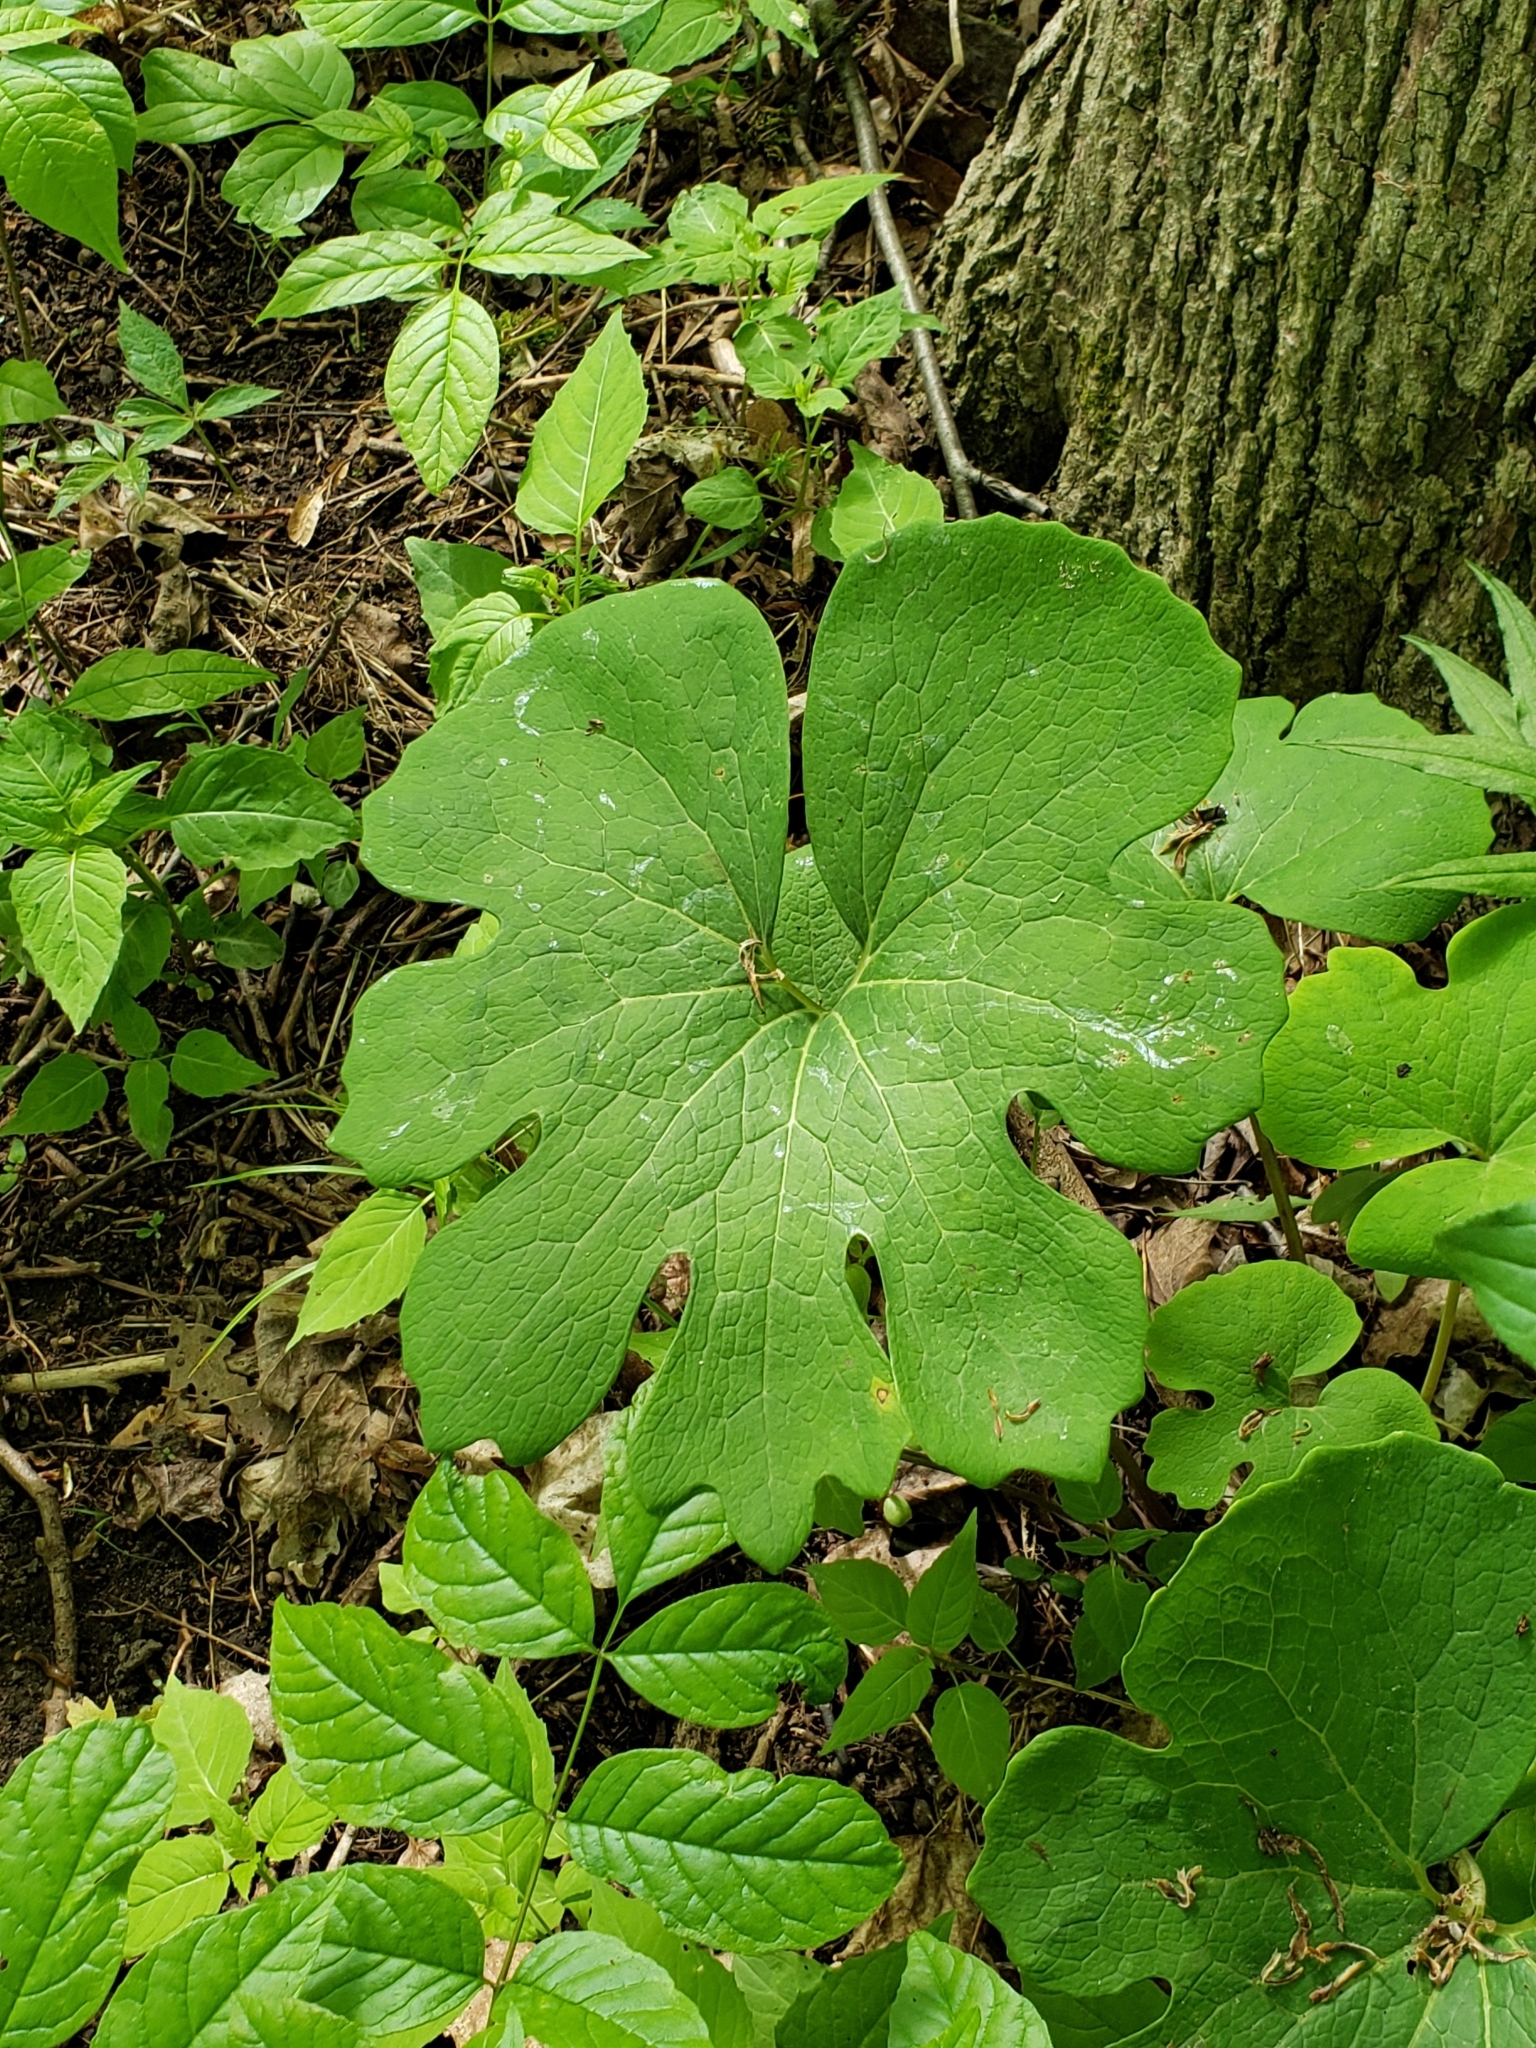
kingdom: Plantae
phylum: Tracheophyta
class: Magnoliopsida
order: Ranunculales
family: Papaveraceae
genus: Sanguinaria
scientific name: Sanguinaria canadensis
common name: Bloodroot
